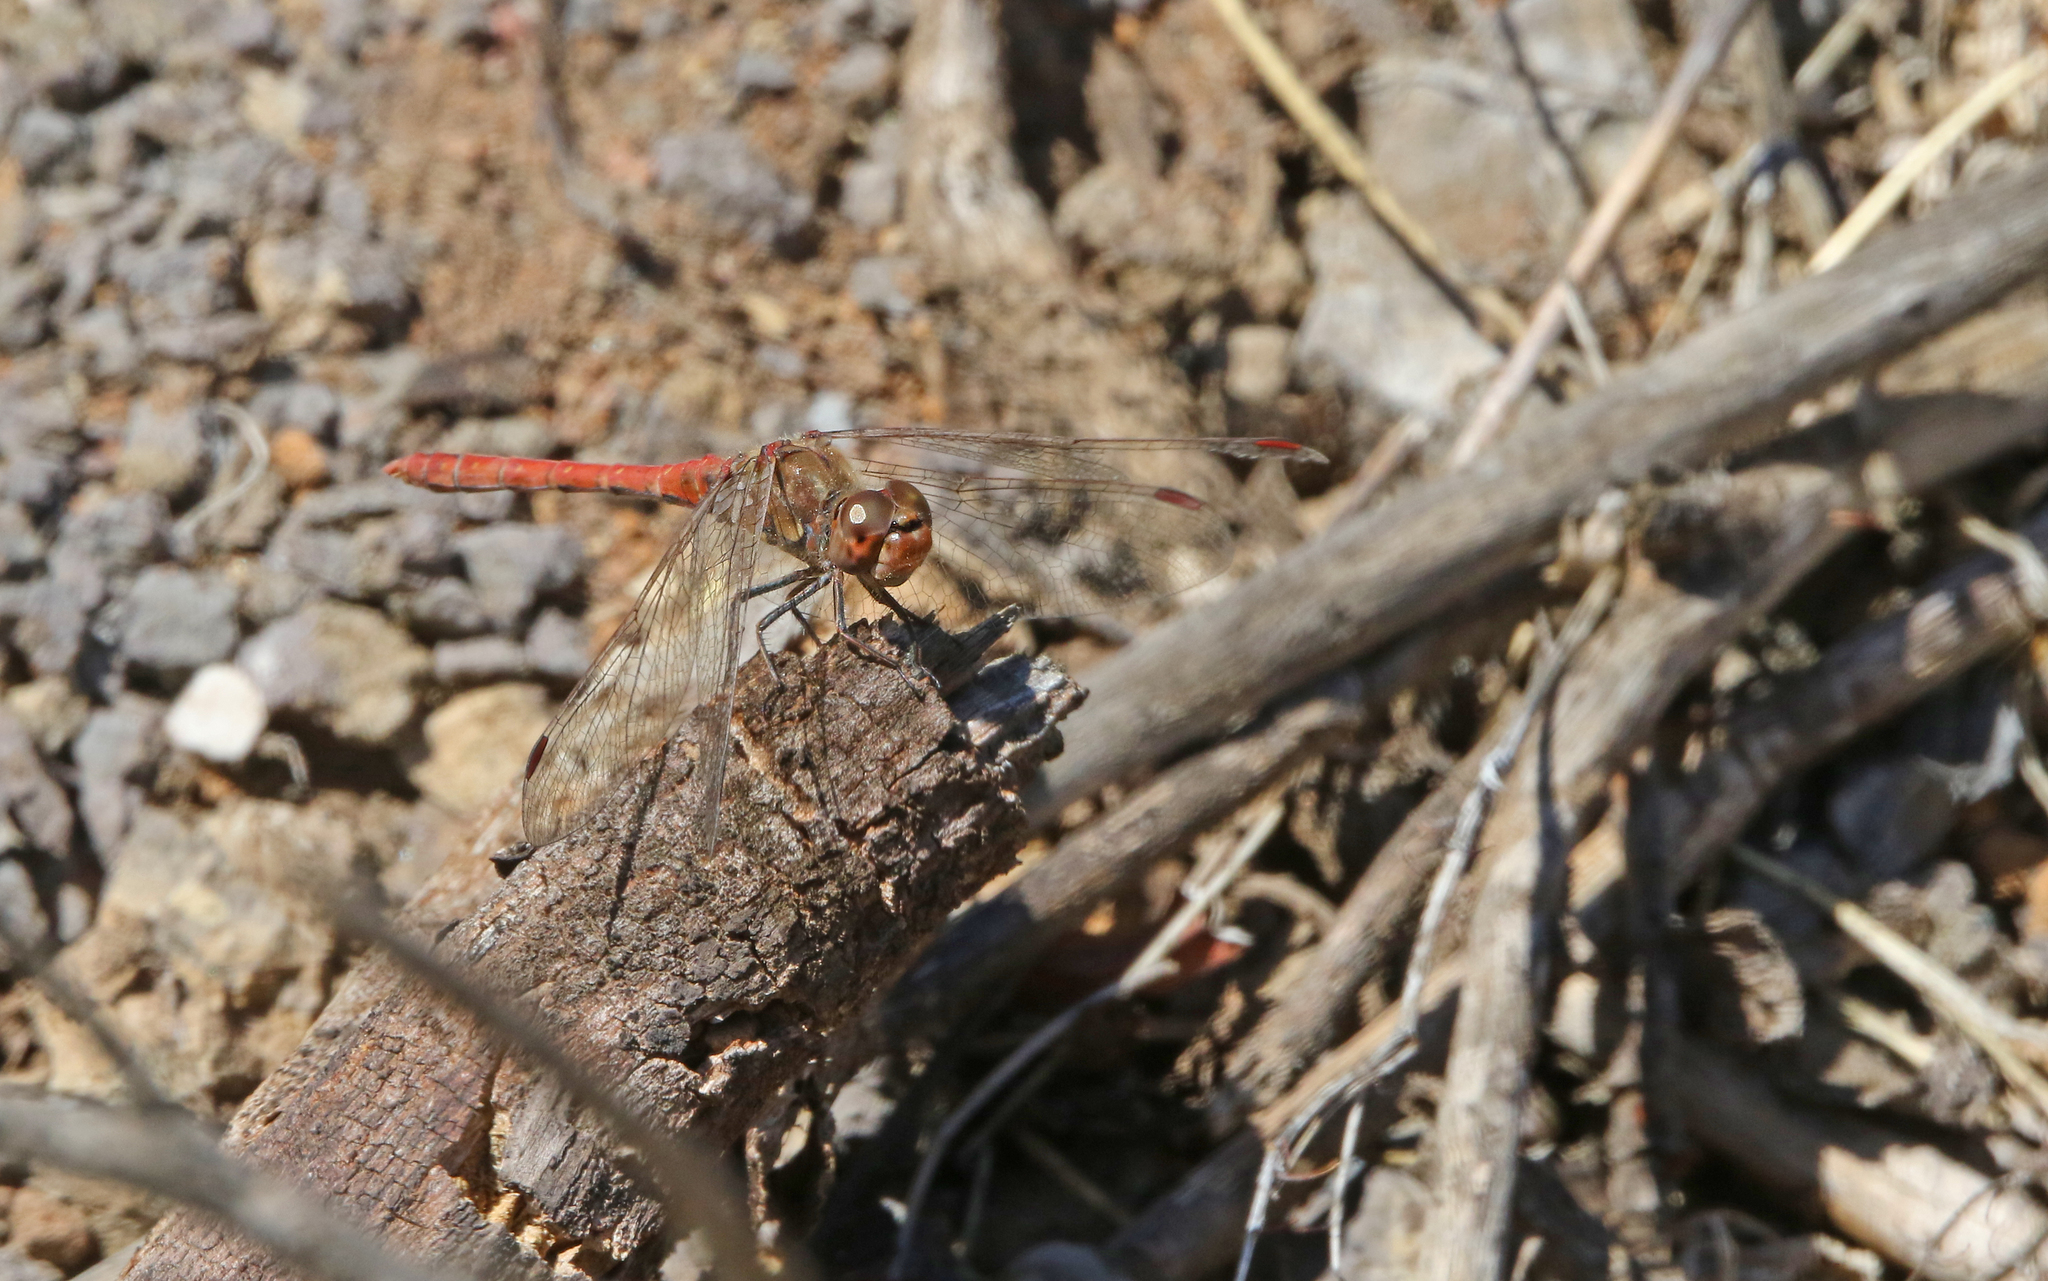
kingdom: Animalia
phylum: Arthropoda
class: Insecta
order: Odonata
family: Libellulidae
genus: Sympetrum
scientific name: Sympetrum nigrifemur
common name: Island darter
